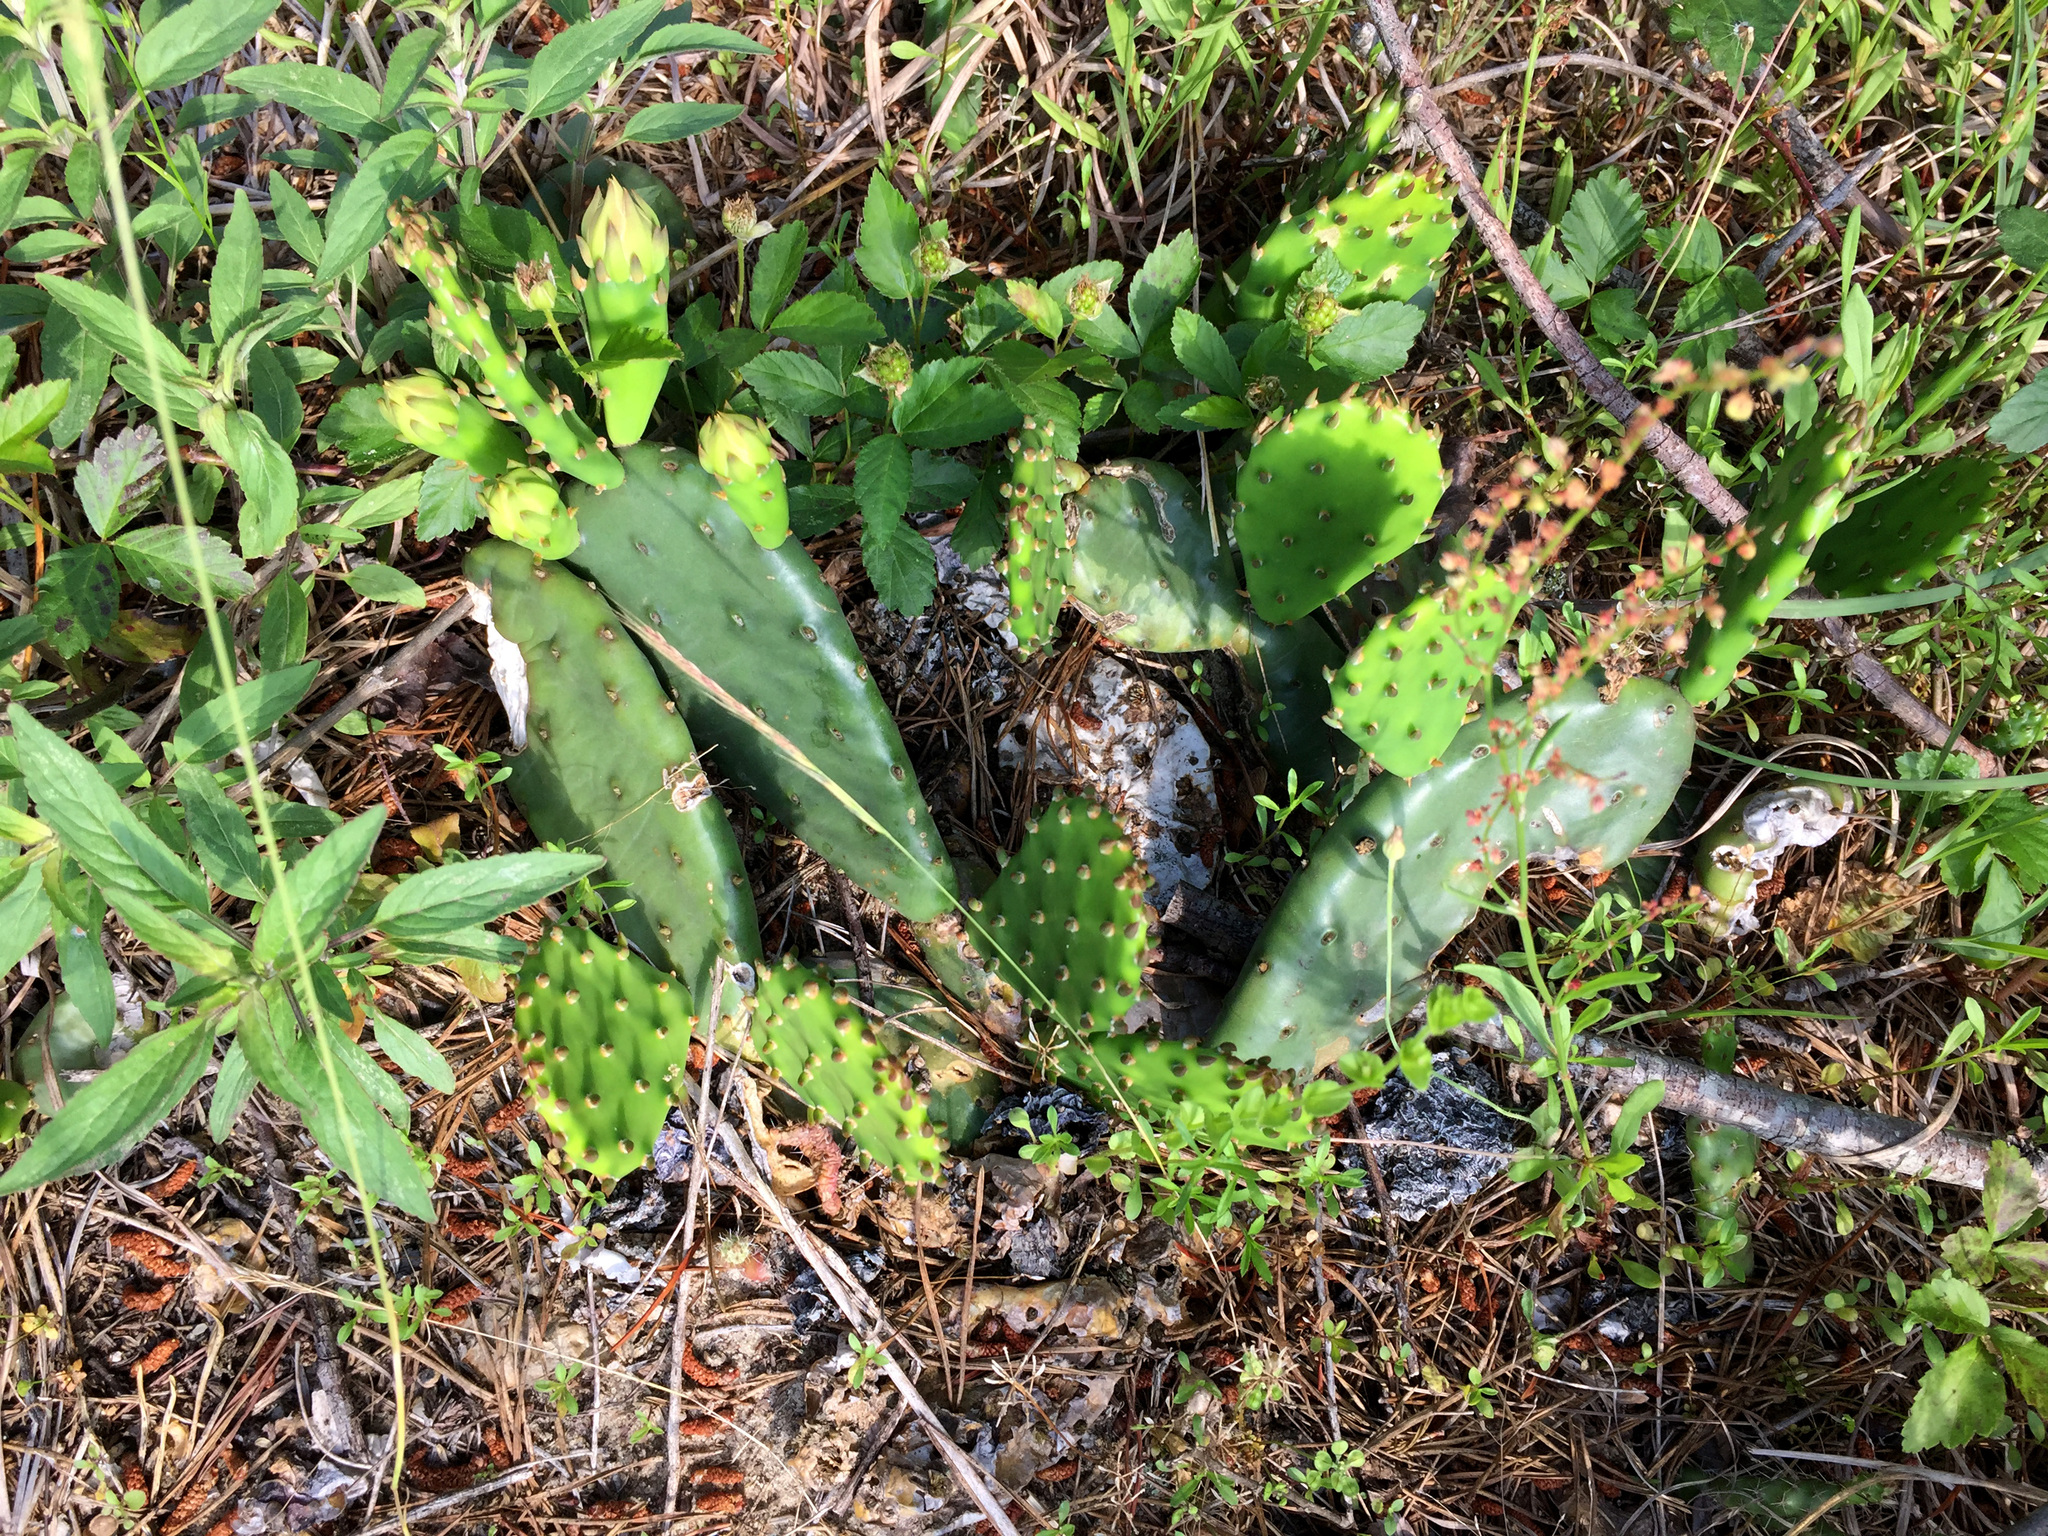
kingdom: Plantae
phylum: Tracheophyta
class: Magnoliopsida
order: Caryophyllales
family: Cactaceae
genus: Opuntia
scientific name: Opuntia humifusa
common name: Eastern prickly-pear
